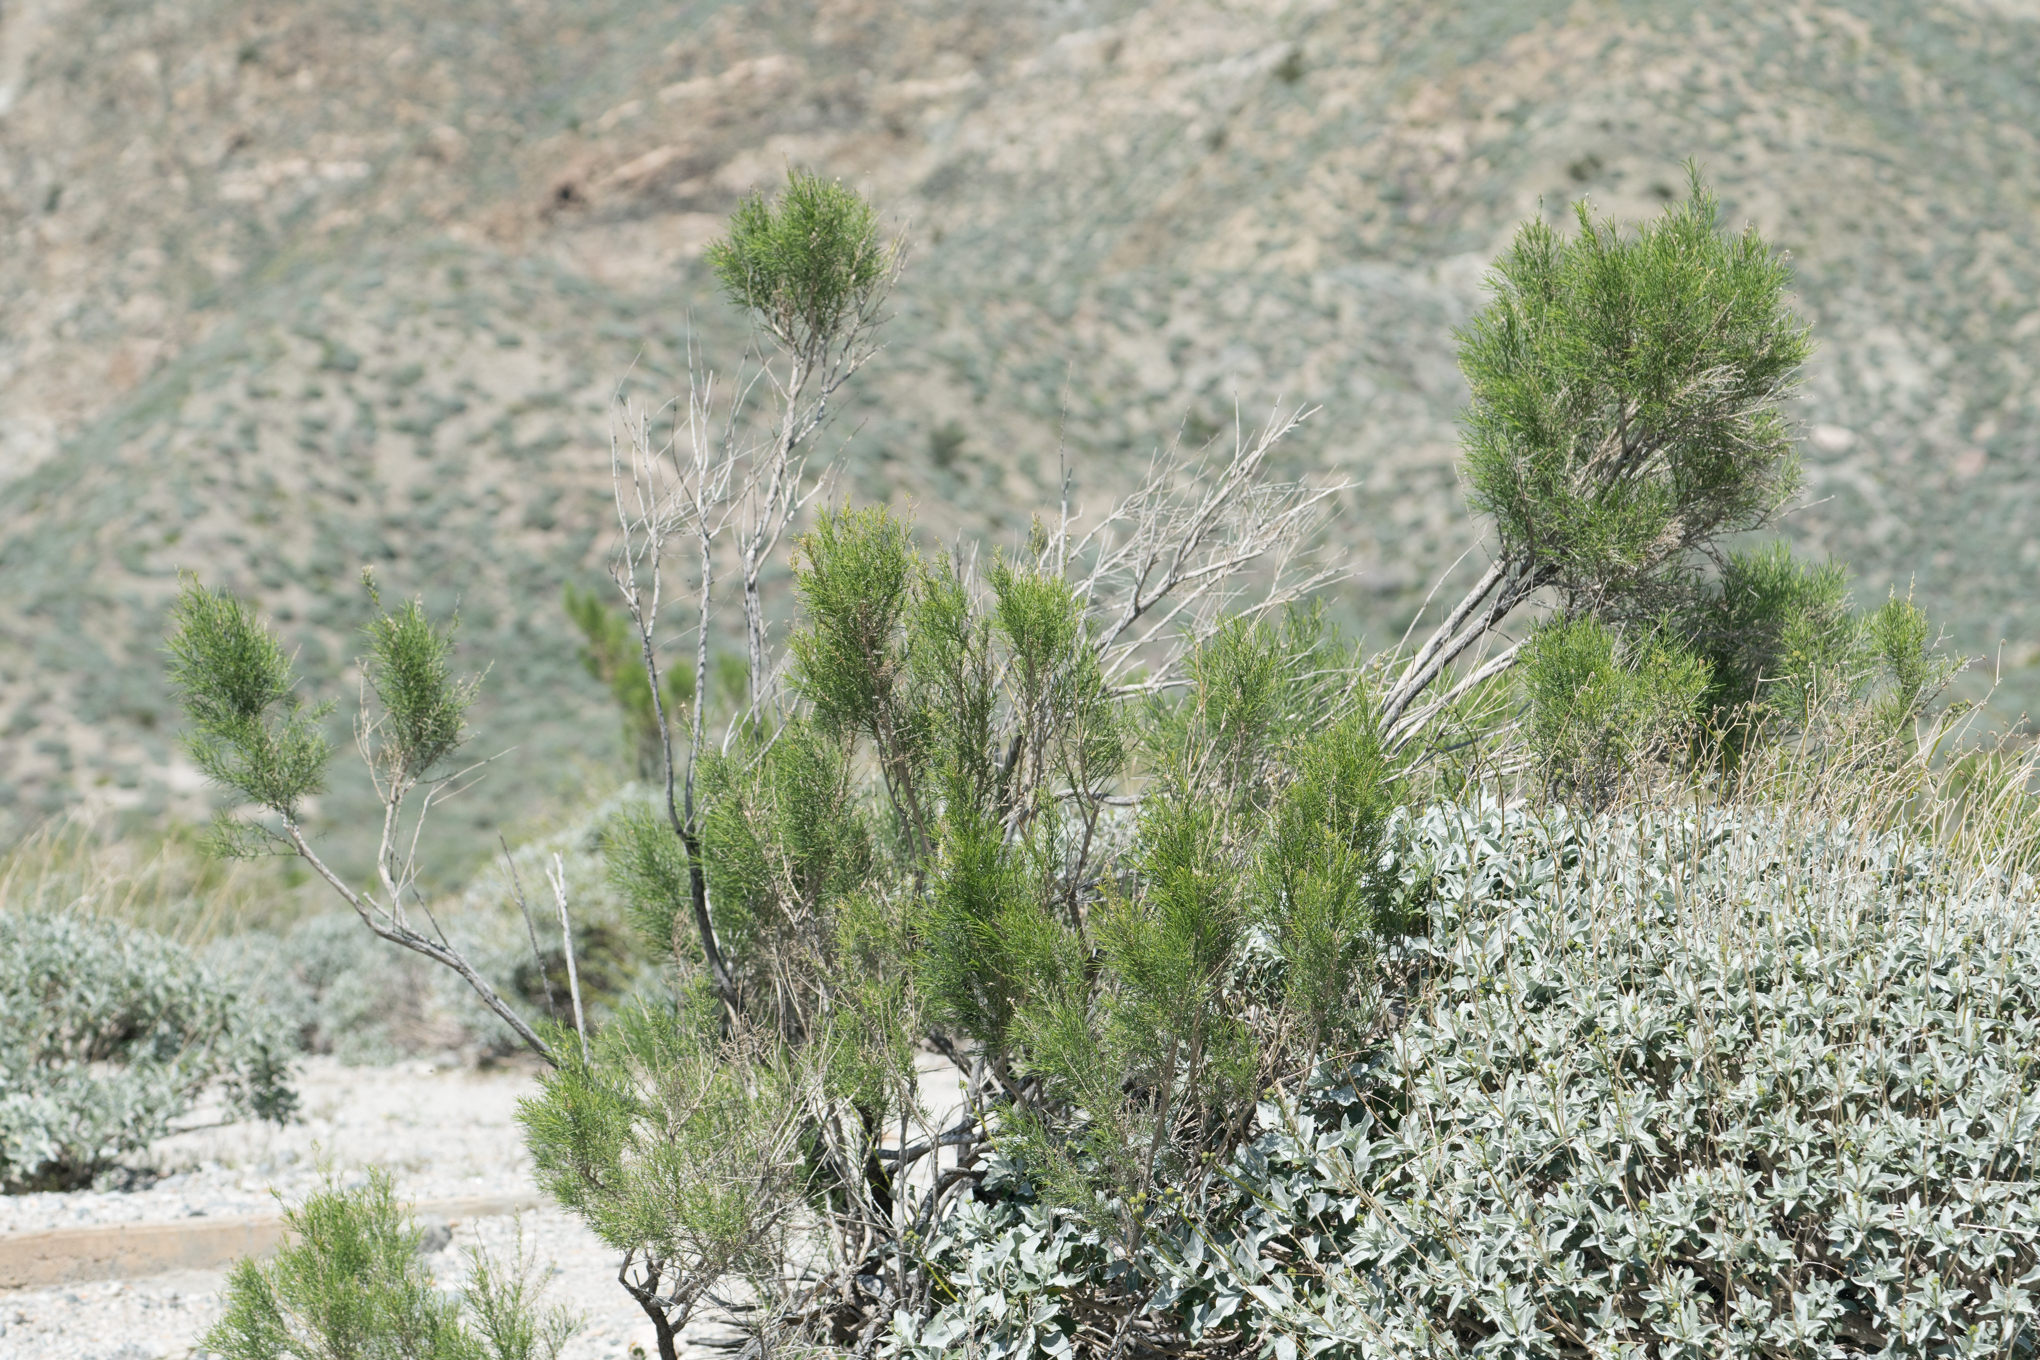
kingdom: Plantae
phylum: Tracheophyta
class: Magnoliopsida
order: Asterales
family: Asteraceae
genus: Ericameria
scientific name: Ericameria paniculata
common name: Punctate rabbitbrush
